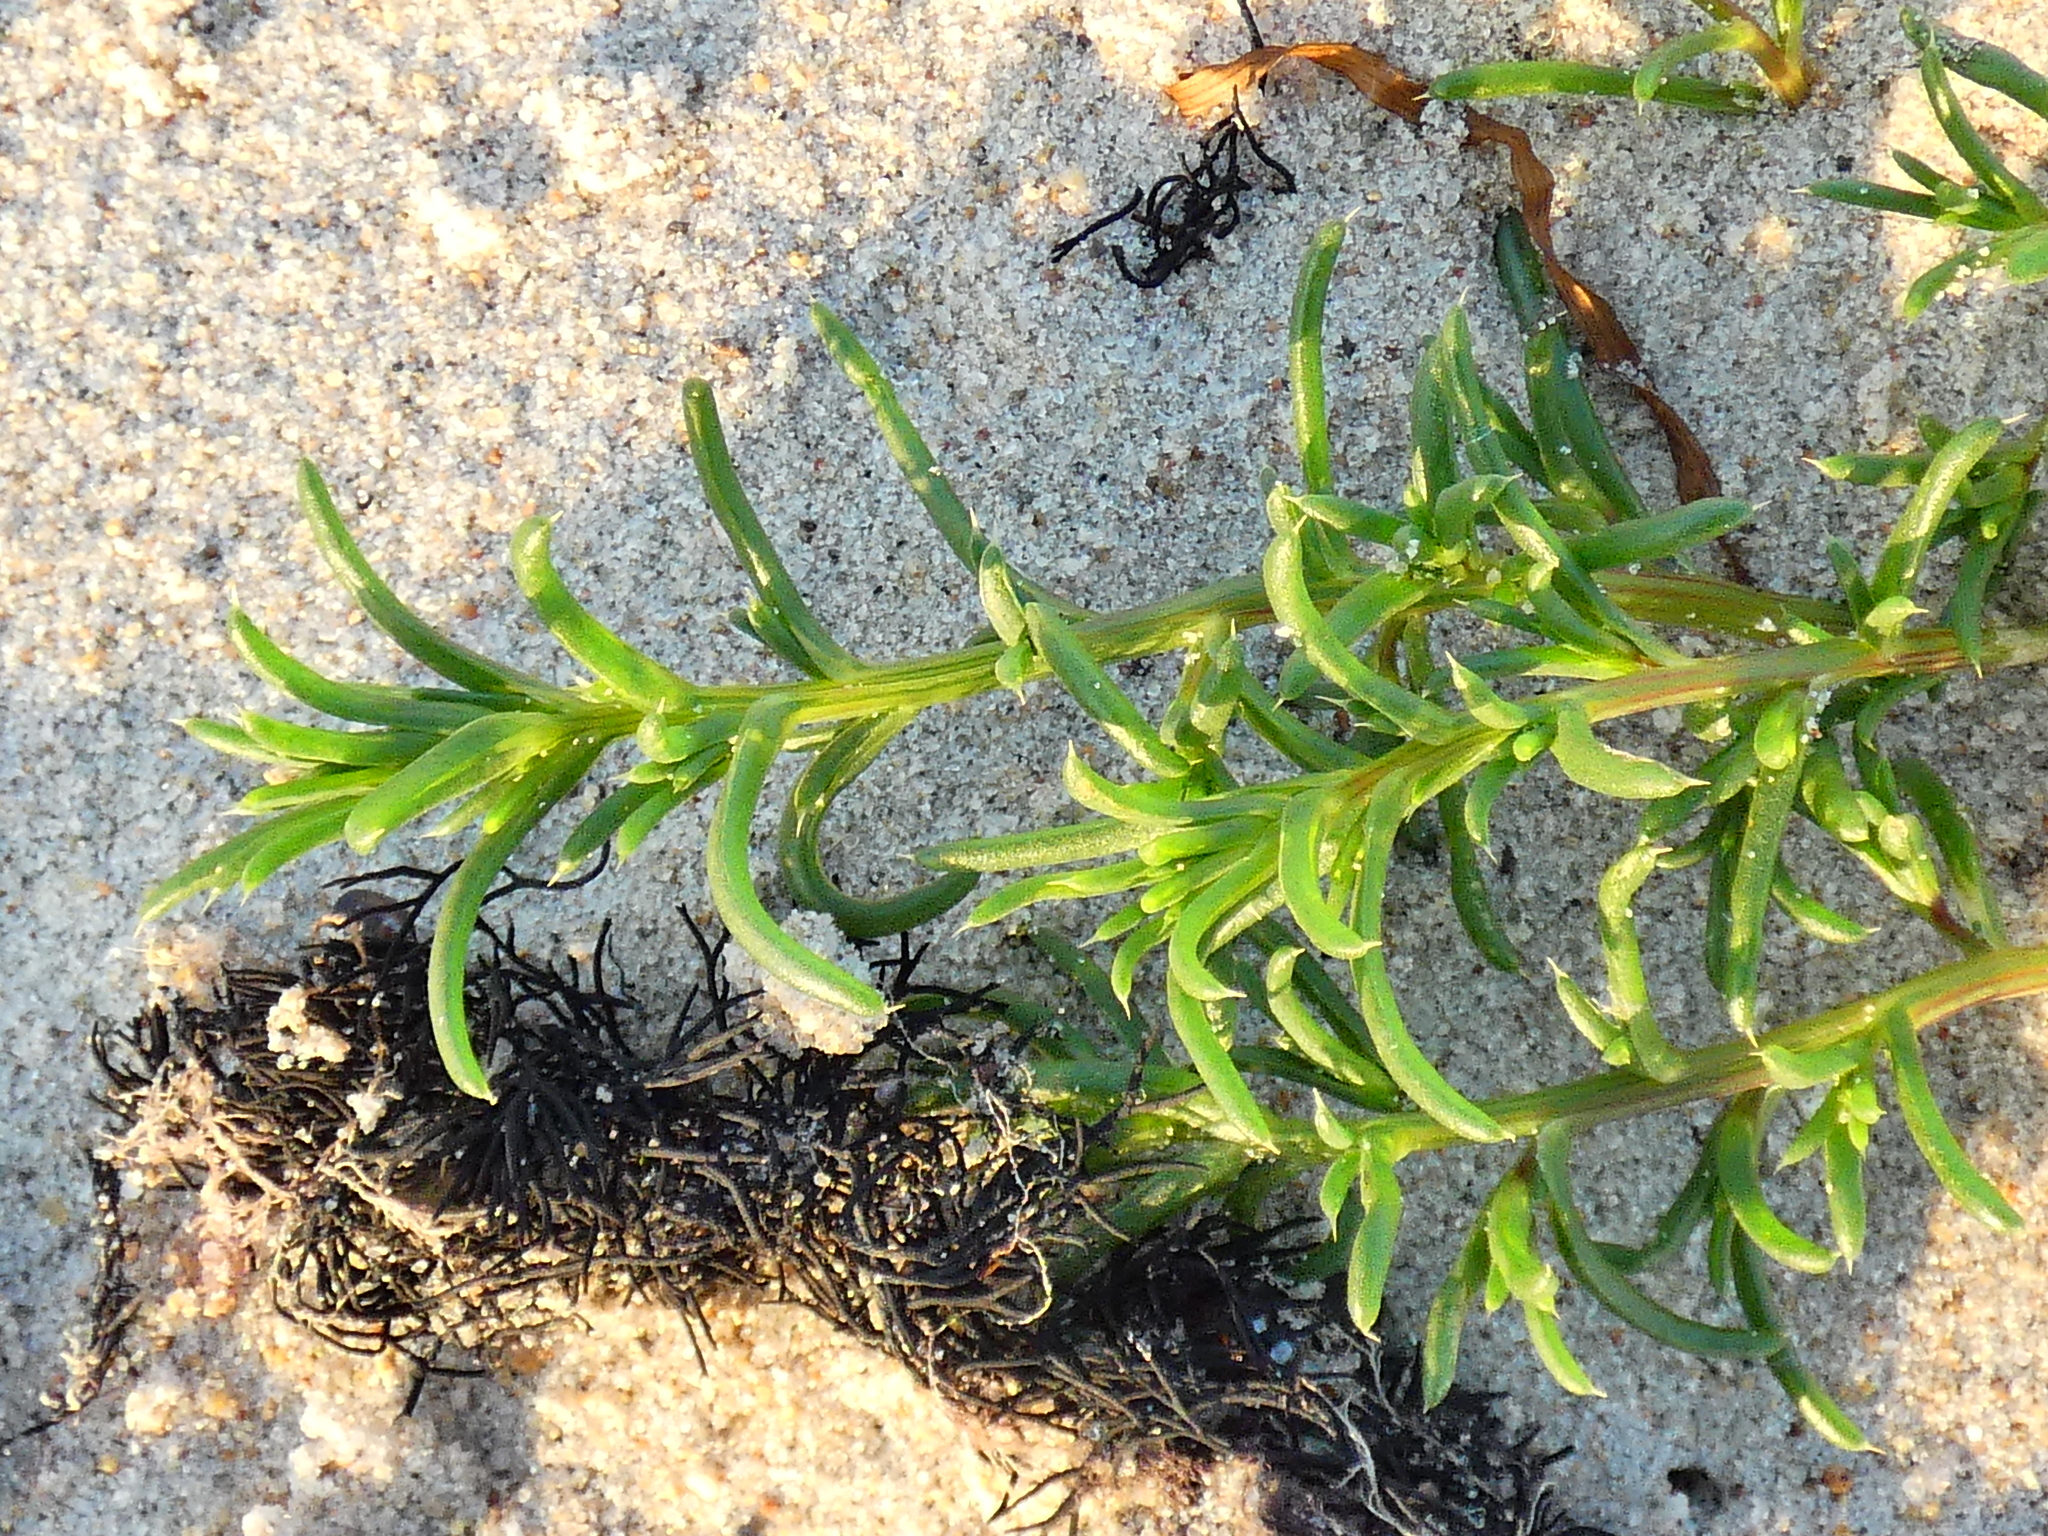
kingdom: Plantae
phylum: Tracheophyta
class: Magnoliopsida
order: Caryophyllales
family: Amaranthaceae
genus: Salsola
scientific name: Salsola kali
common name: Saltwort
